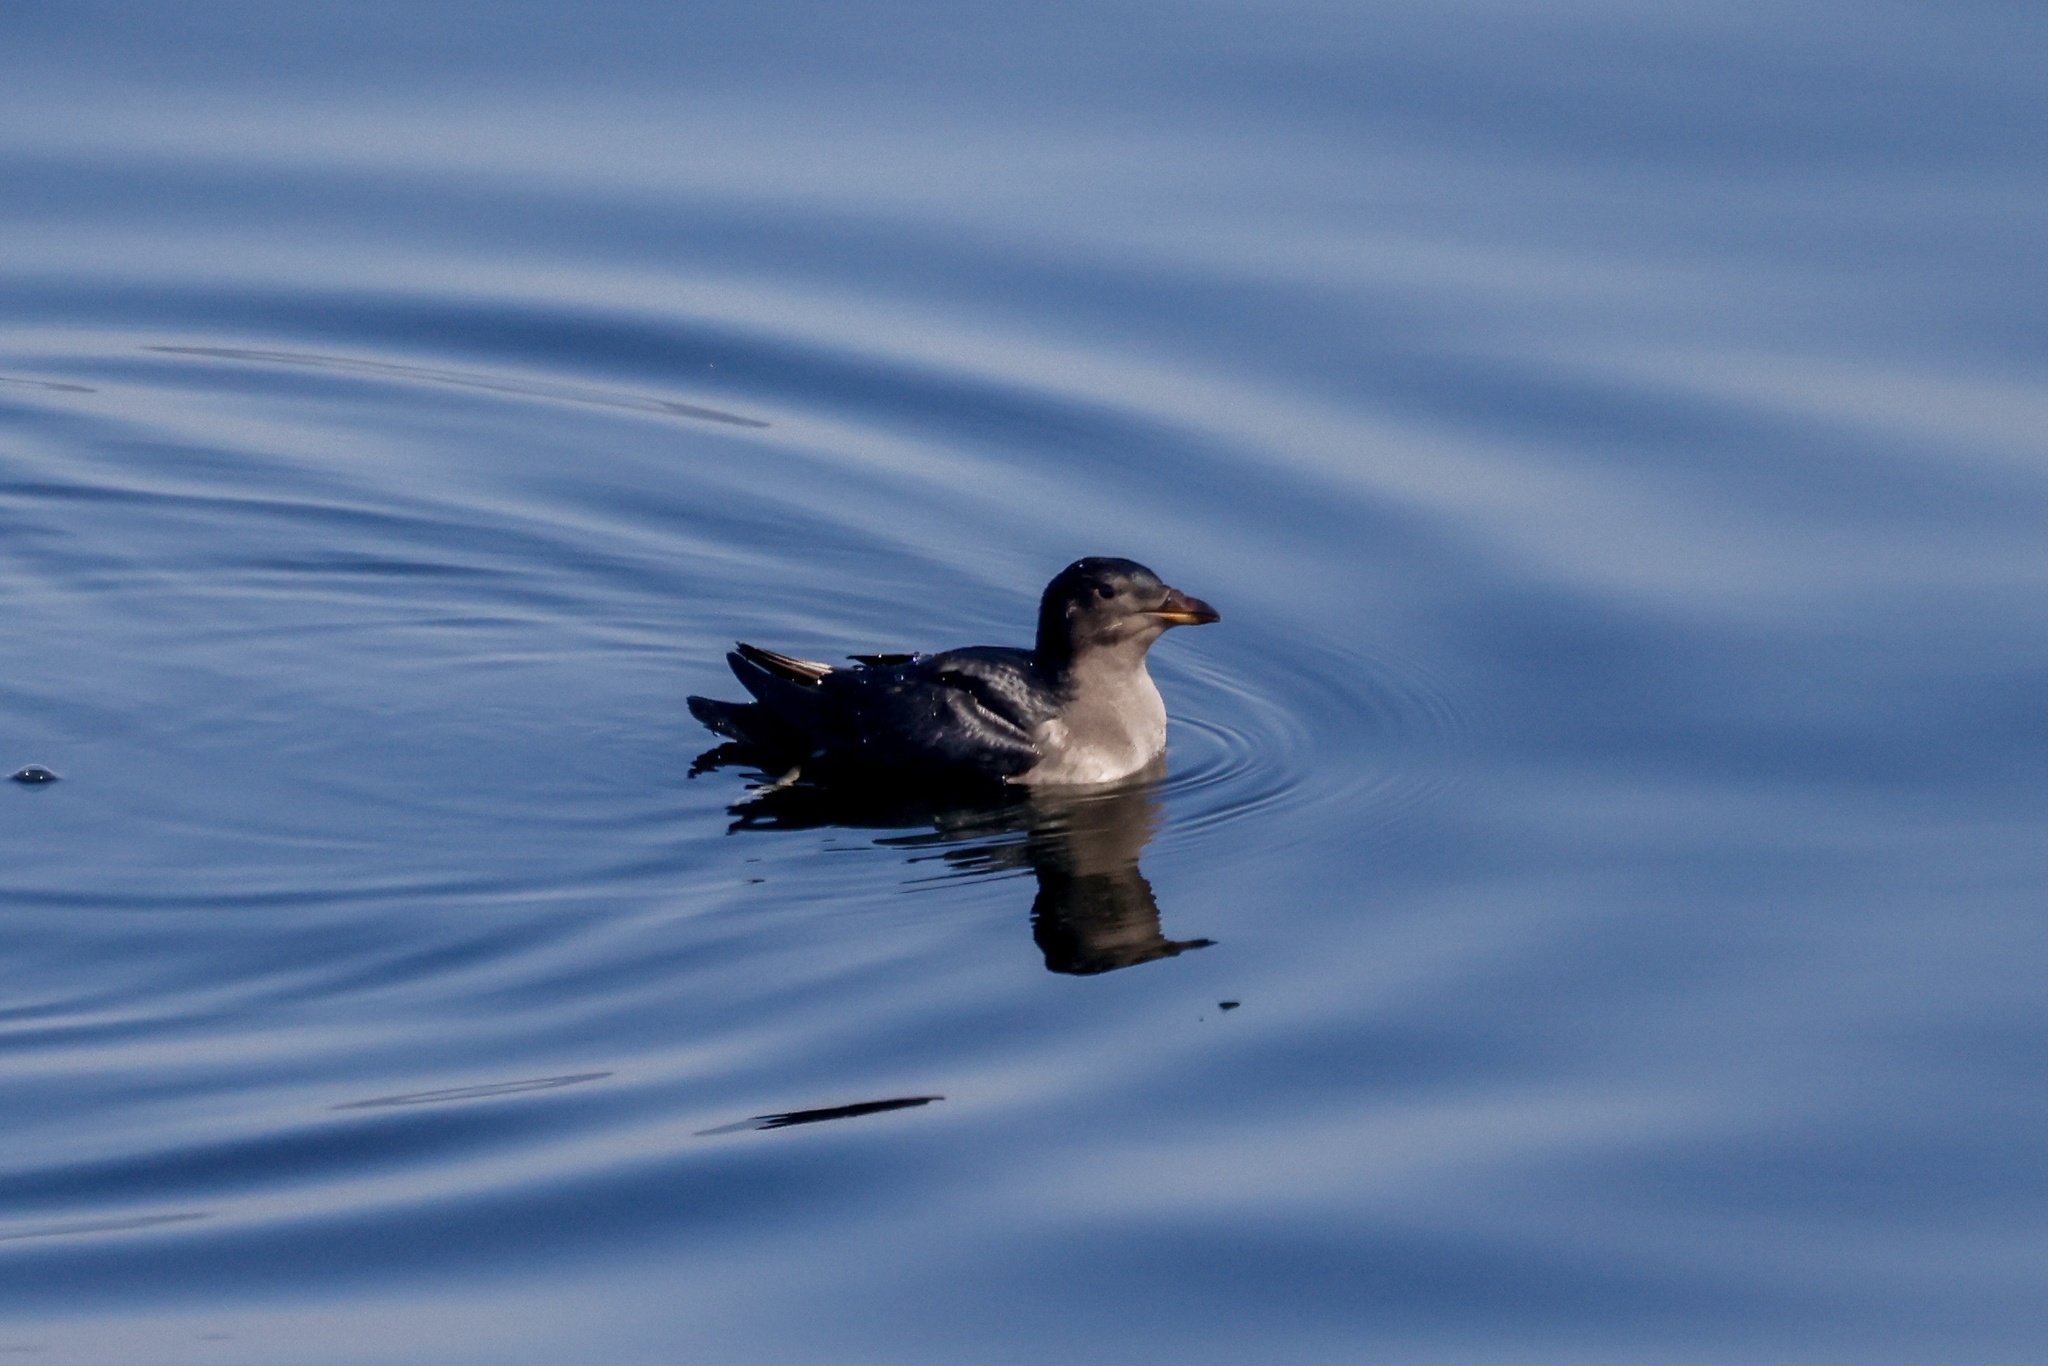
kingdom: Animalia
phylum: Chordata
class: Aves
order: Charadriiformes
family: Alcidae
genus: Cerorhinca
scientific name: Cerorhinca monocerata
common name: Rhinoceros auklet
